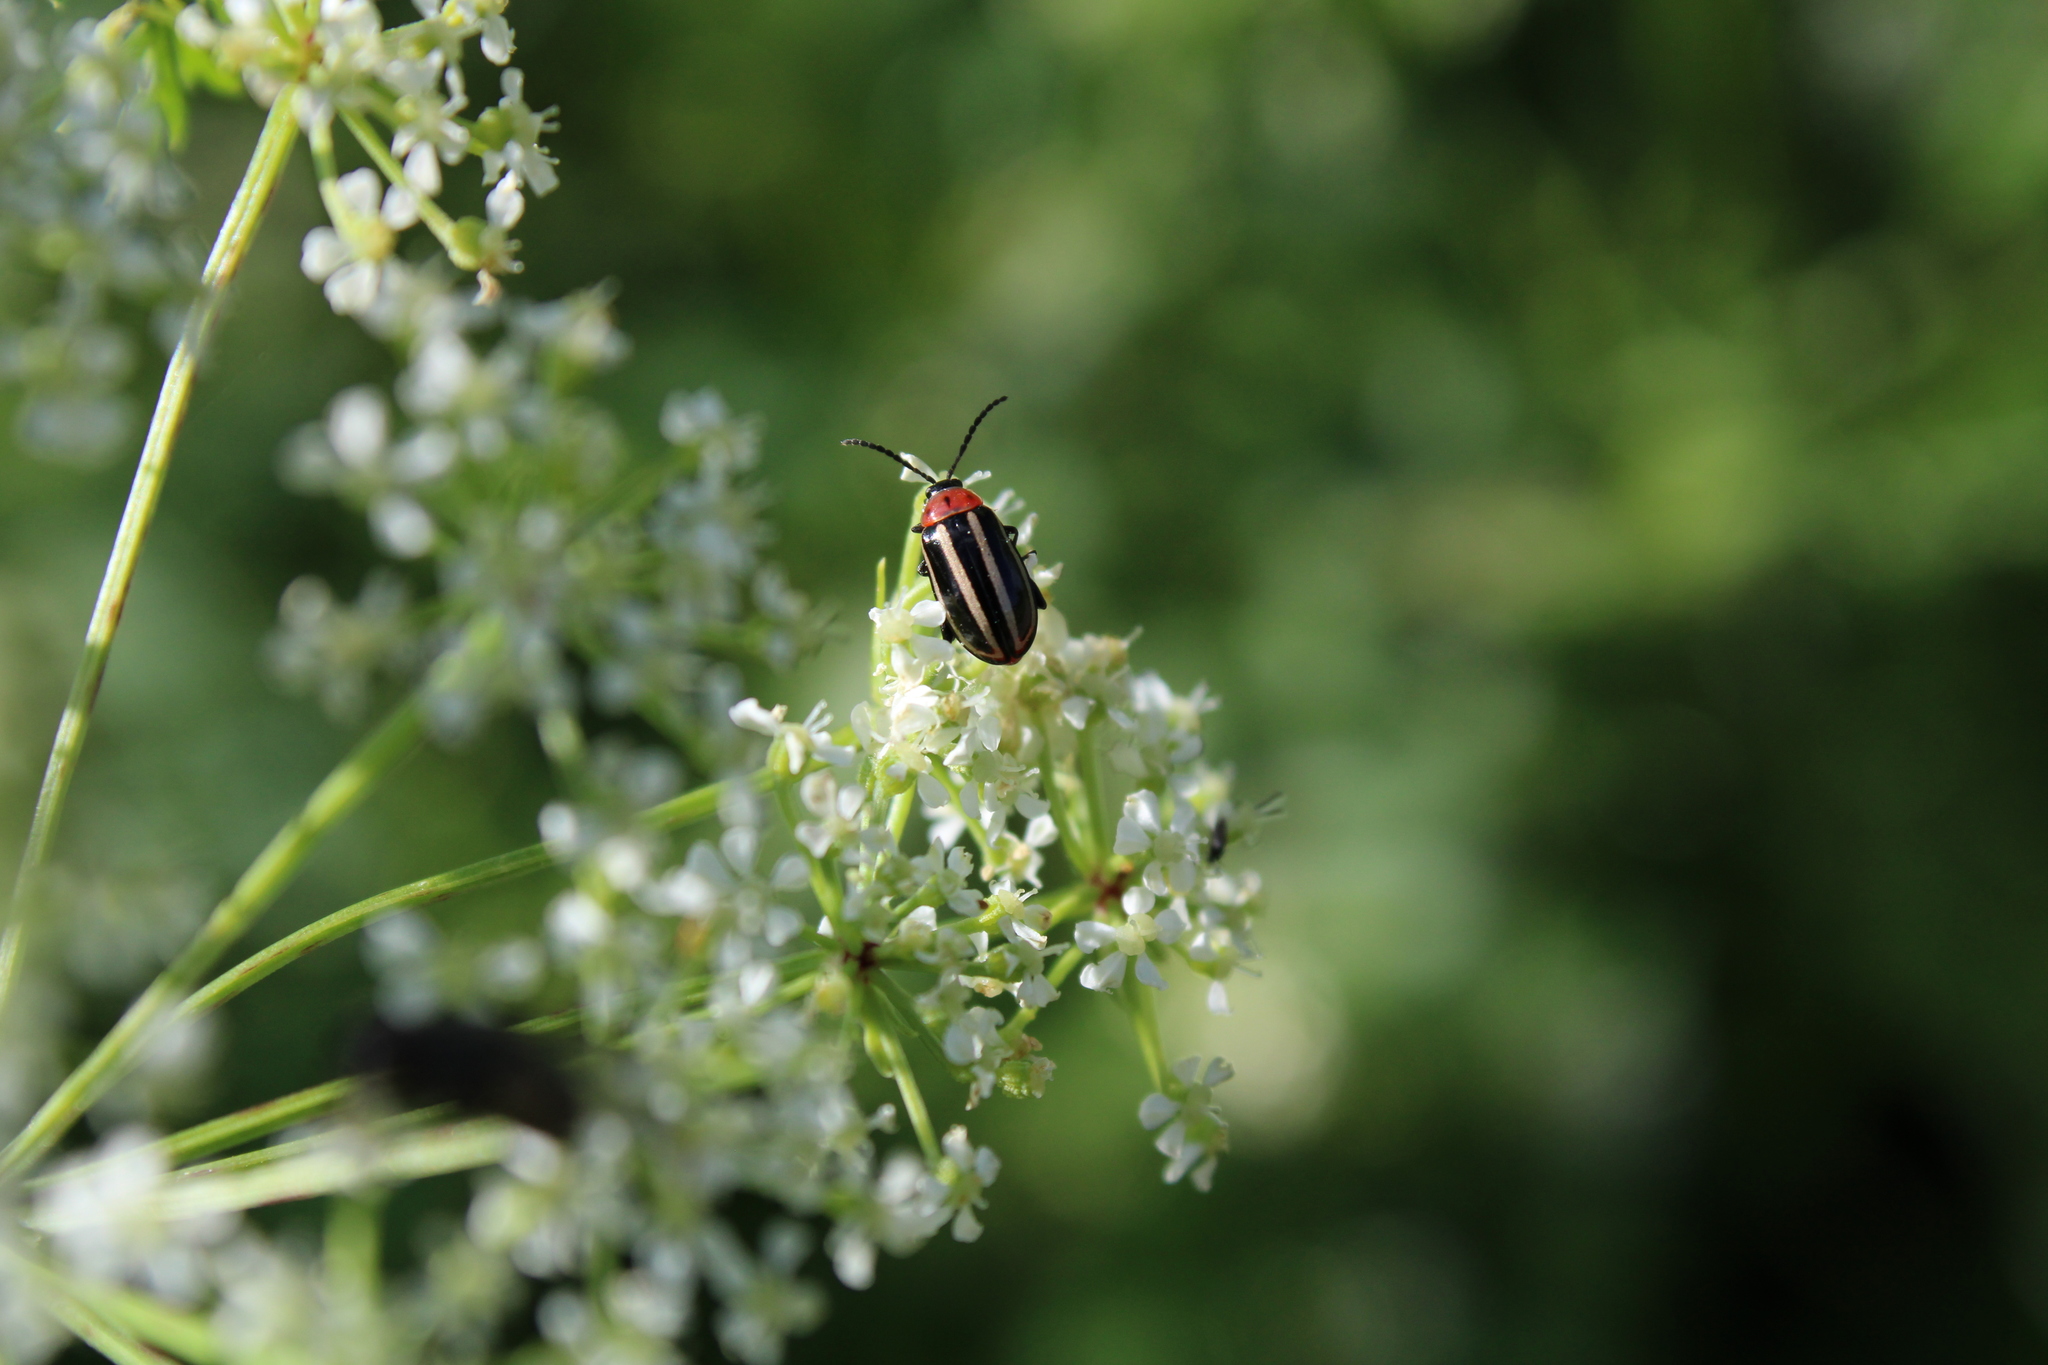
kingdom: Animalia
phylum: Arthropoda
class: Insecta
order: Coleoptera
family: Chrysomelidae
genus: Disonycha
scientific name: Disonycha glabrata
